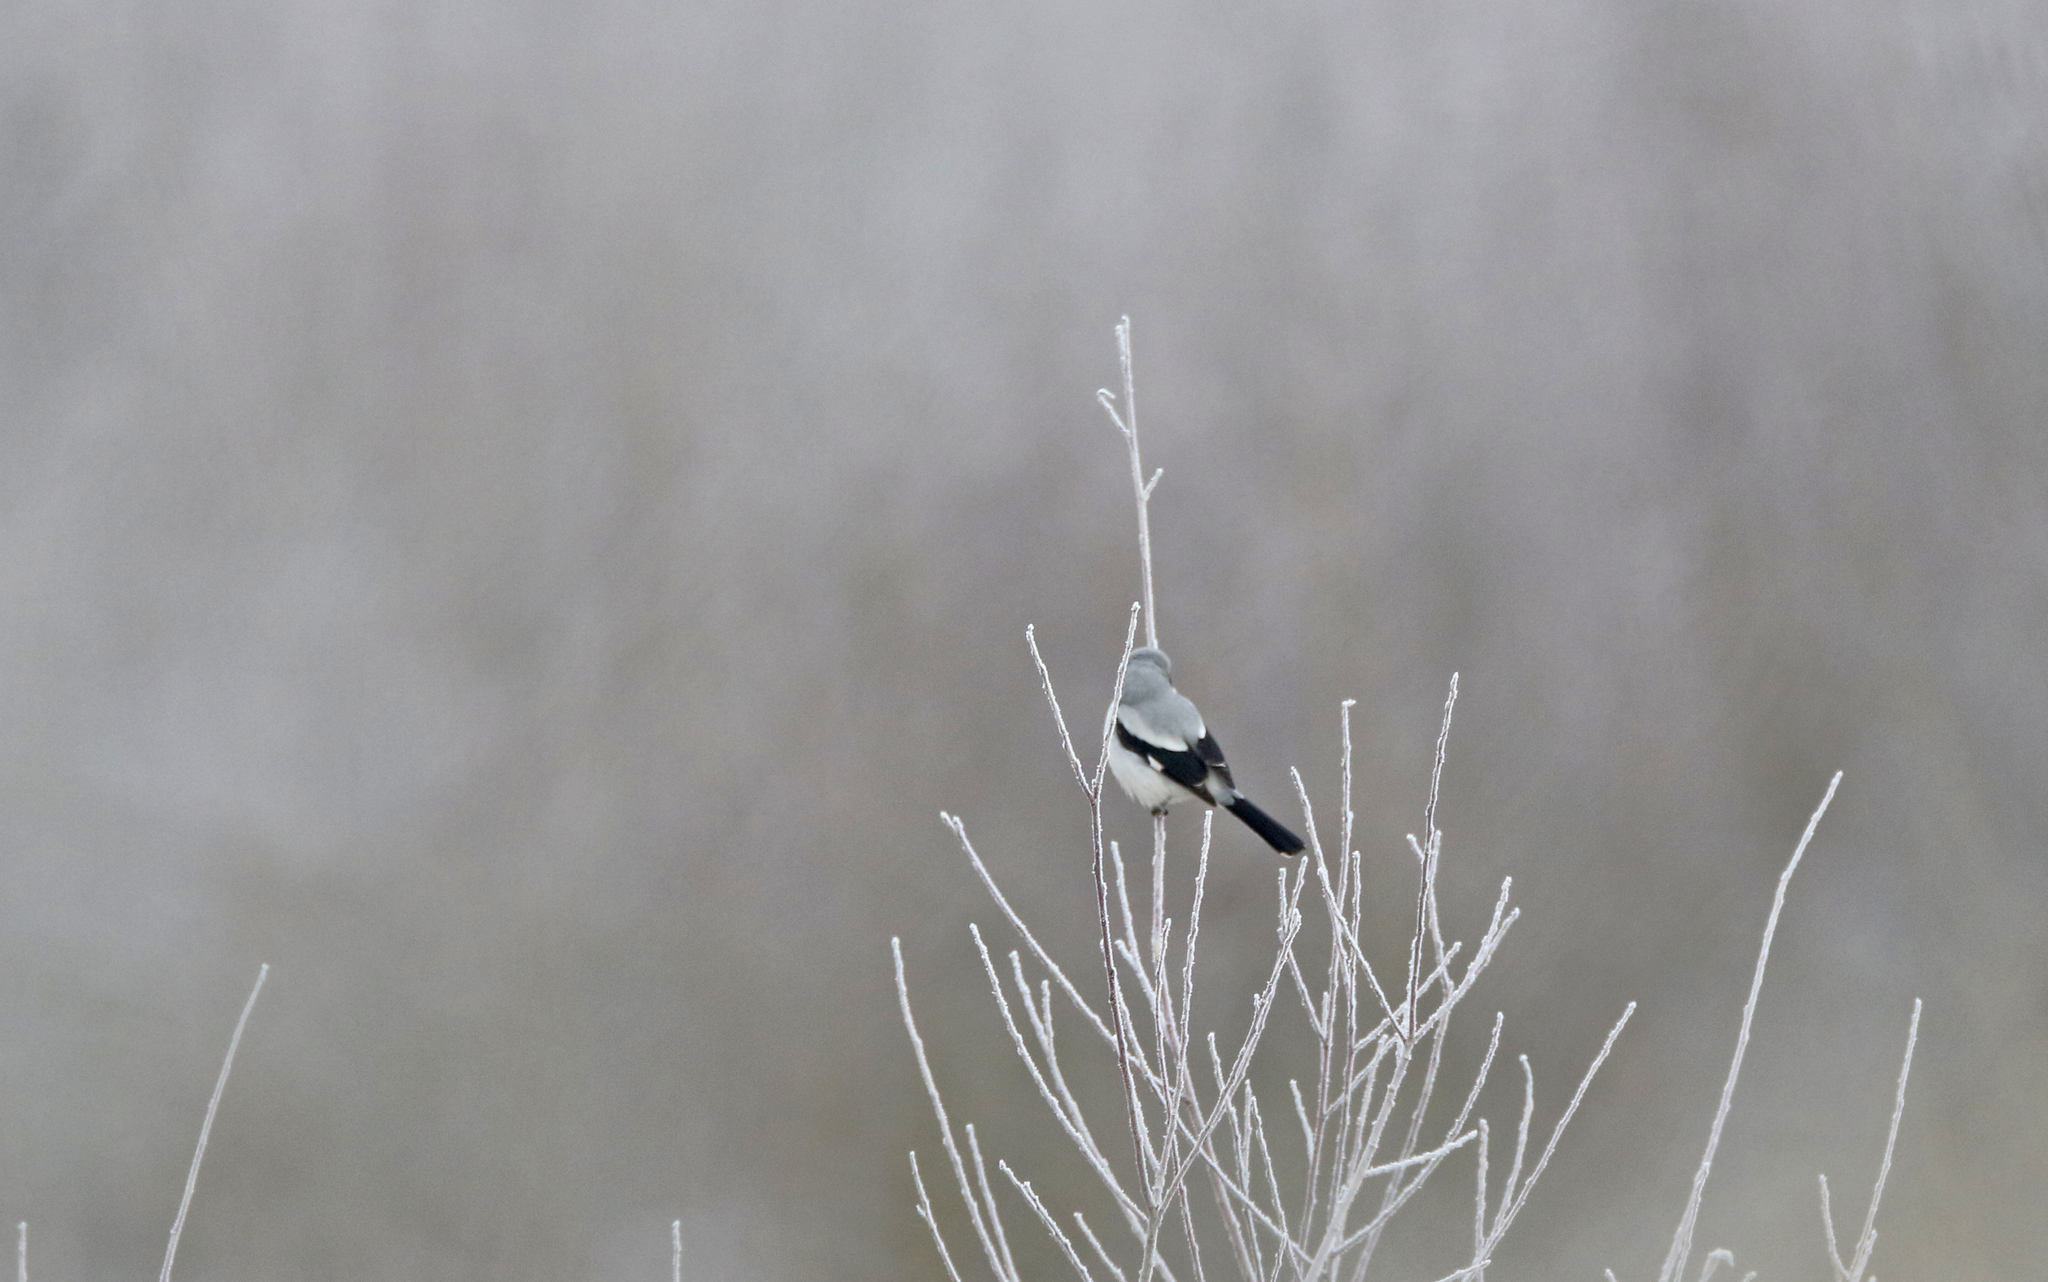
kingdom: Animalia
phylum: Chordata
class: Aves
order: Passeriformes
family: Laniidae
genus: Lanius
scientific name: Lanius excubitor
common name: Great grey shrike
